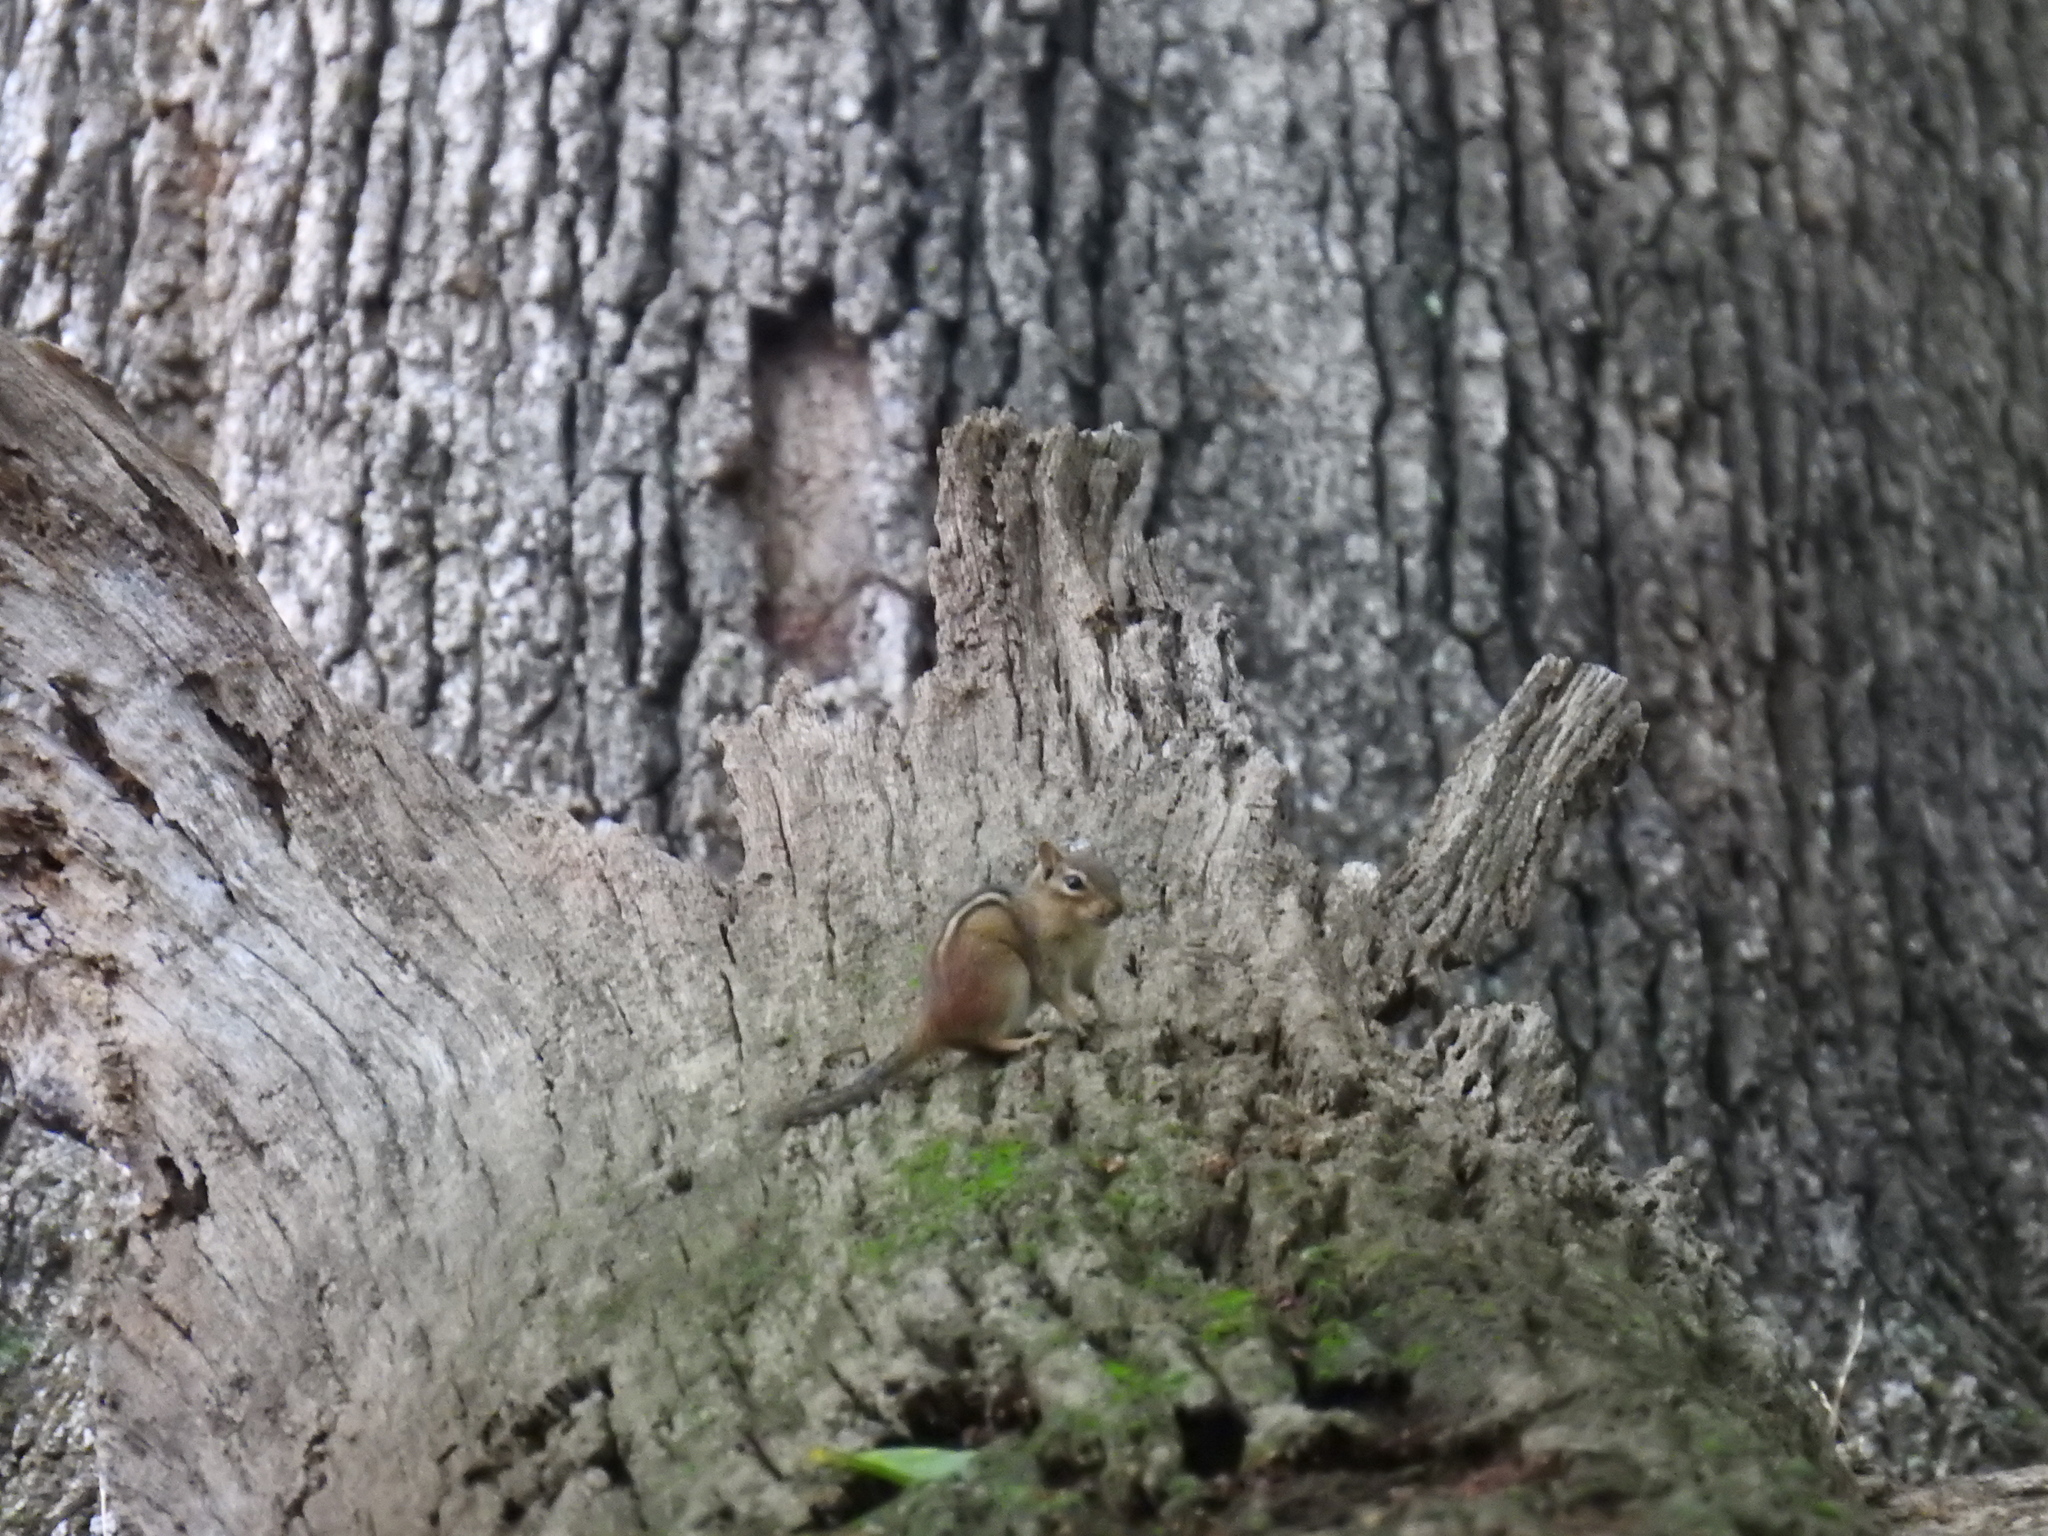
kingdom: Animalia
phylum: Chordata
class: Mammalia
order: Rodentia
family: Sciuridae
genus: Tamias
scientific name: Tamias striatus
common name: Eastern chipmunk
